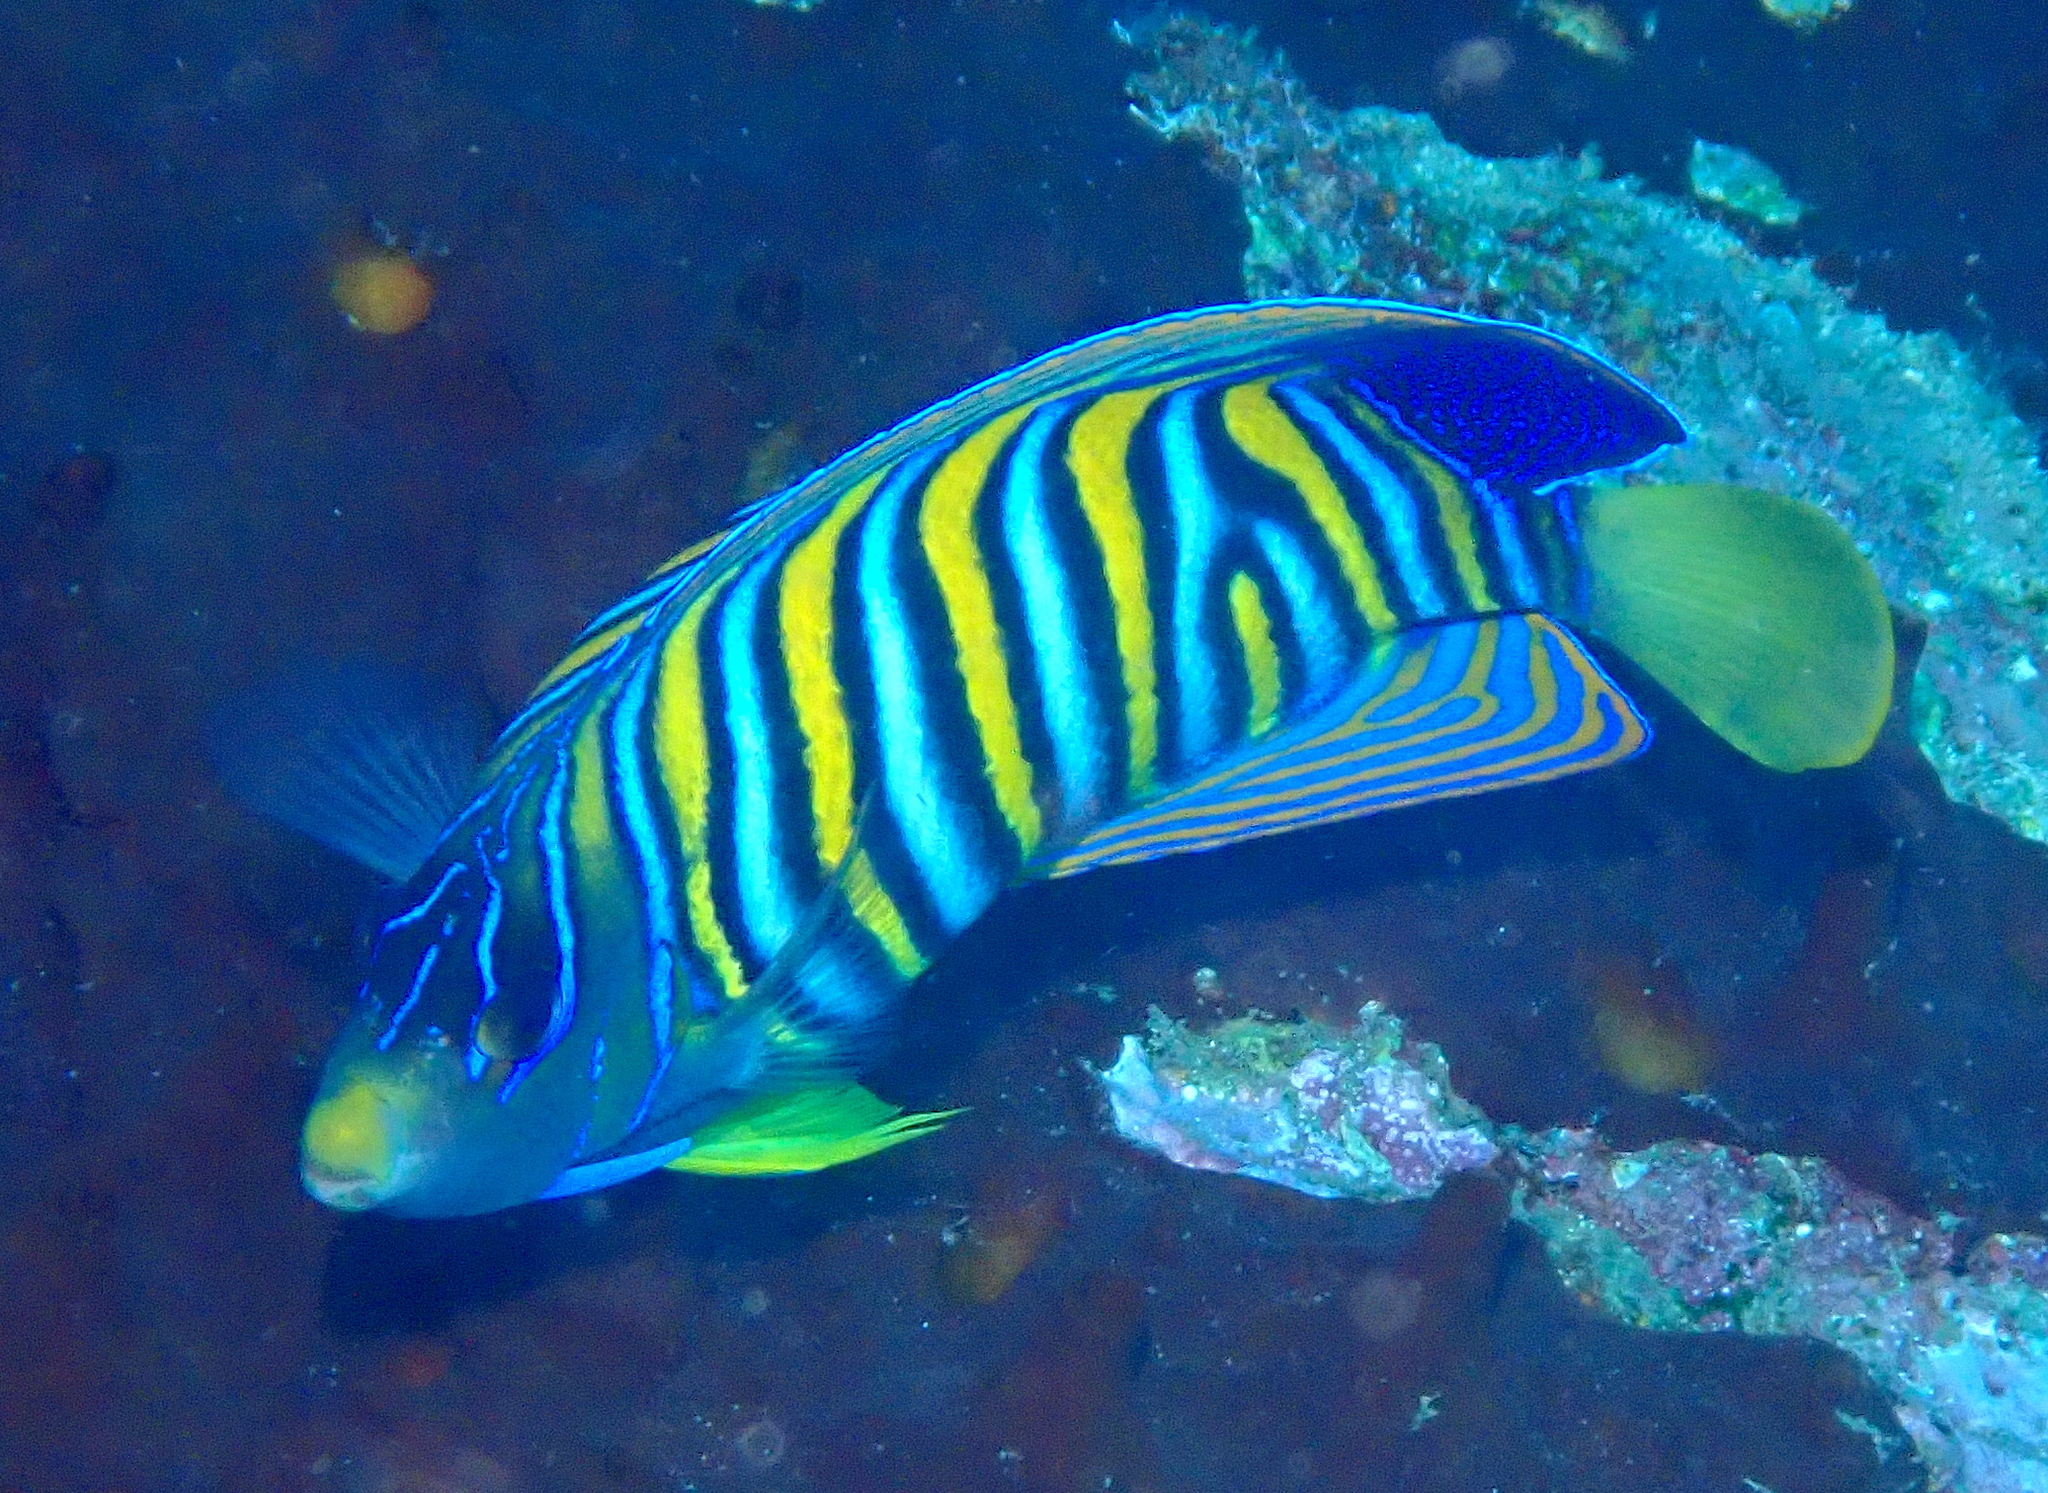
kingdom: Animalia
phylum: Chordata
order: Perciformes
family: Pomacanthidae
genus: Pygoplites
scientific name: Pygoplites diacanthus
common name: Regal angelfish
